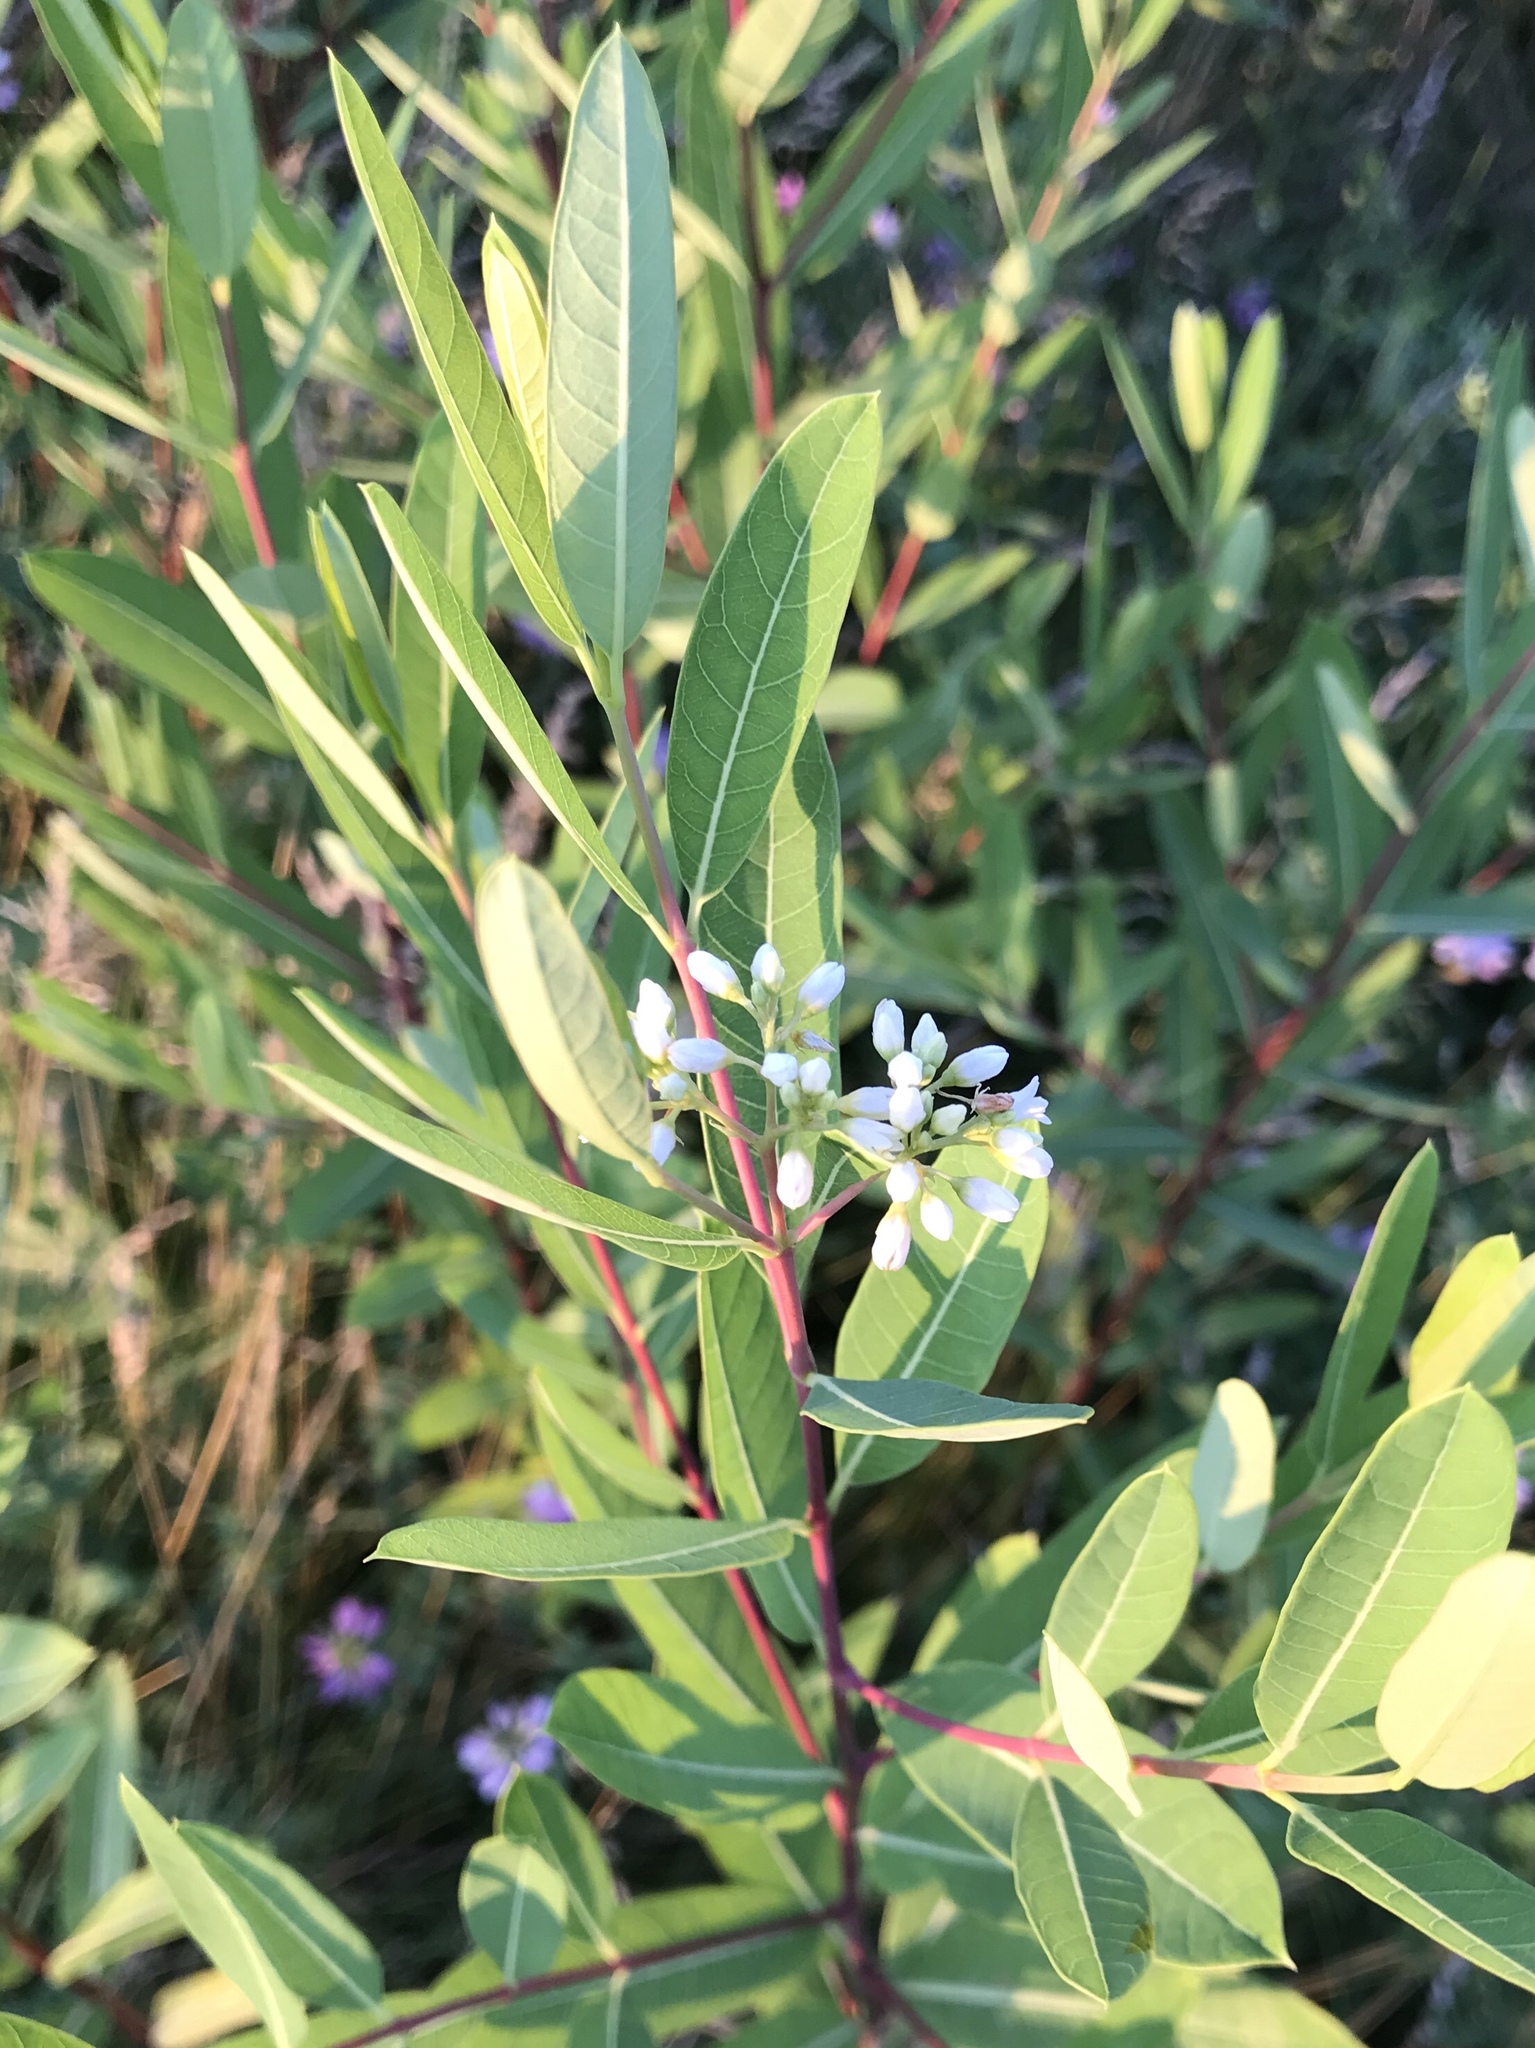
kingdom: Plantae
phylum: Tracheophyta
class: Magnoliopsida
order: Gentianales
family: Apocynaceae
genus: Apocynum
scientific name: Apocynum cannabinum
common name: Hemp dogbane
